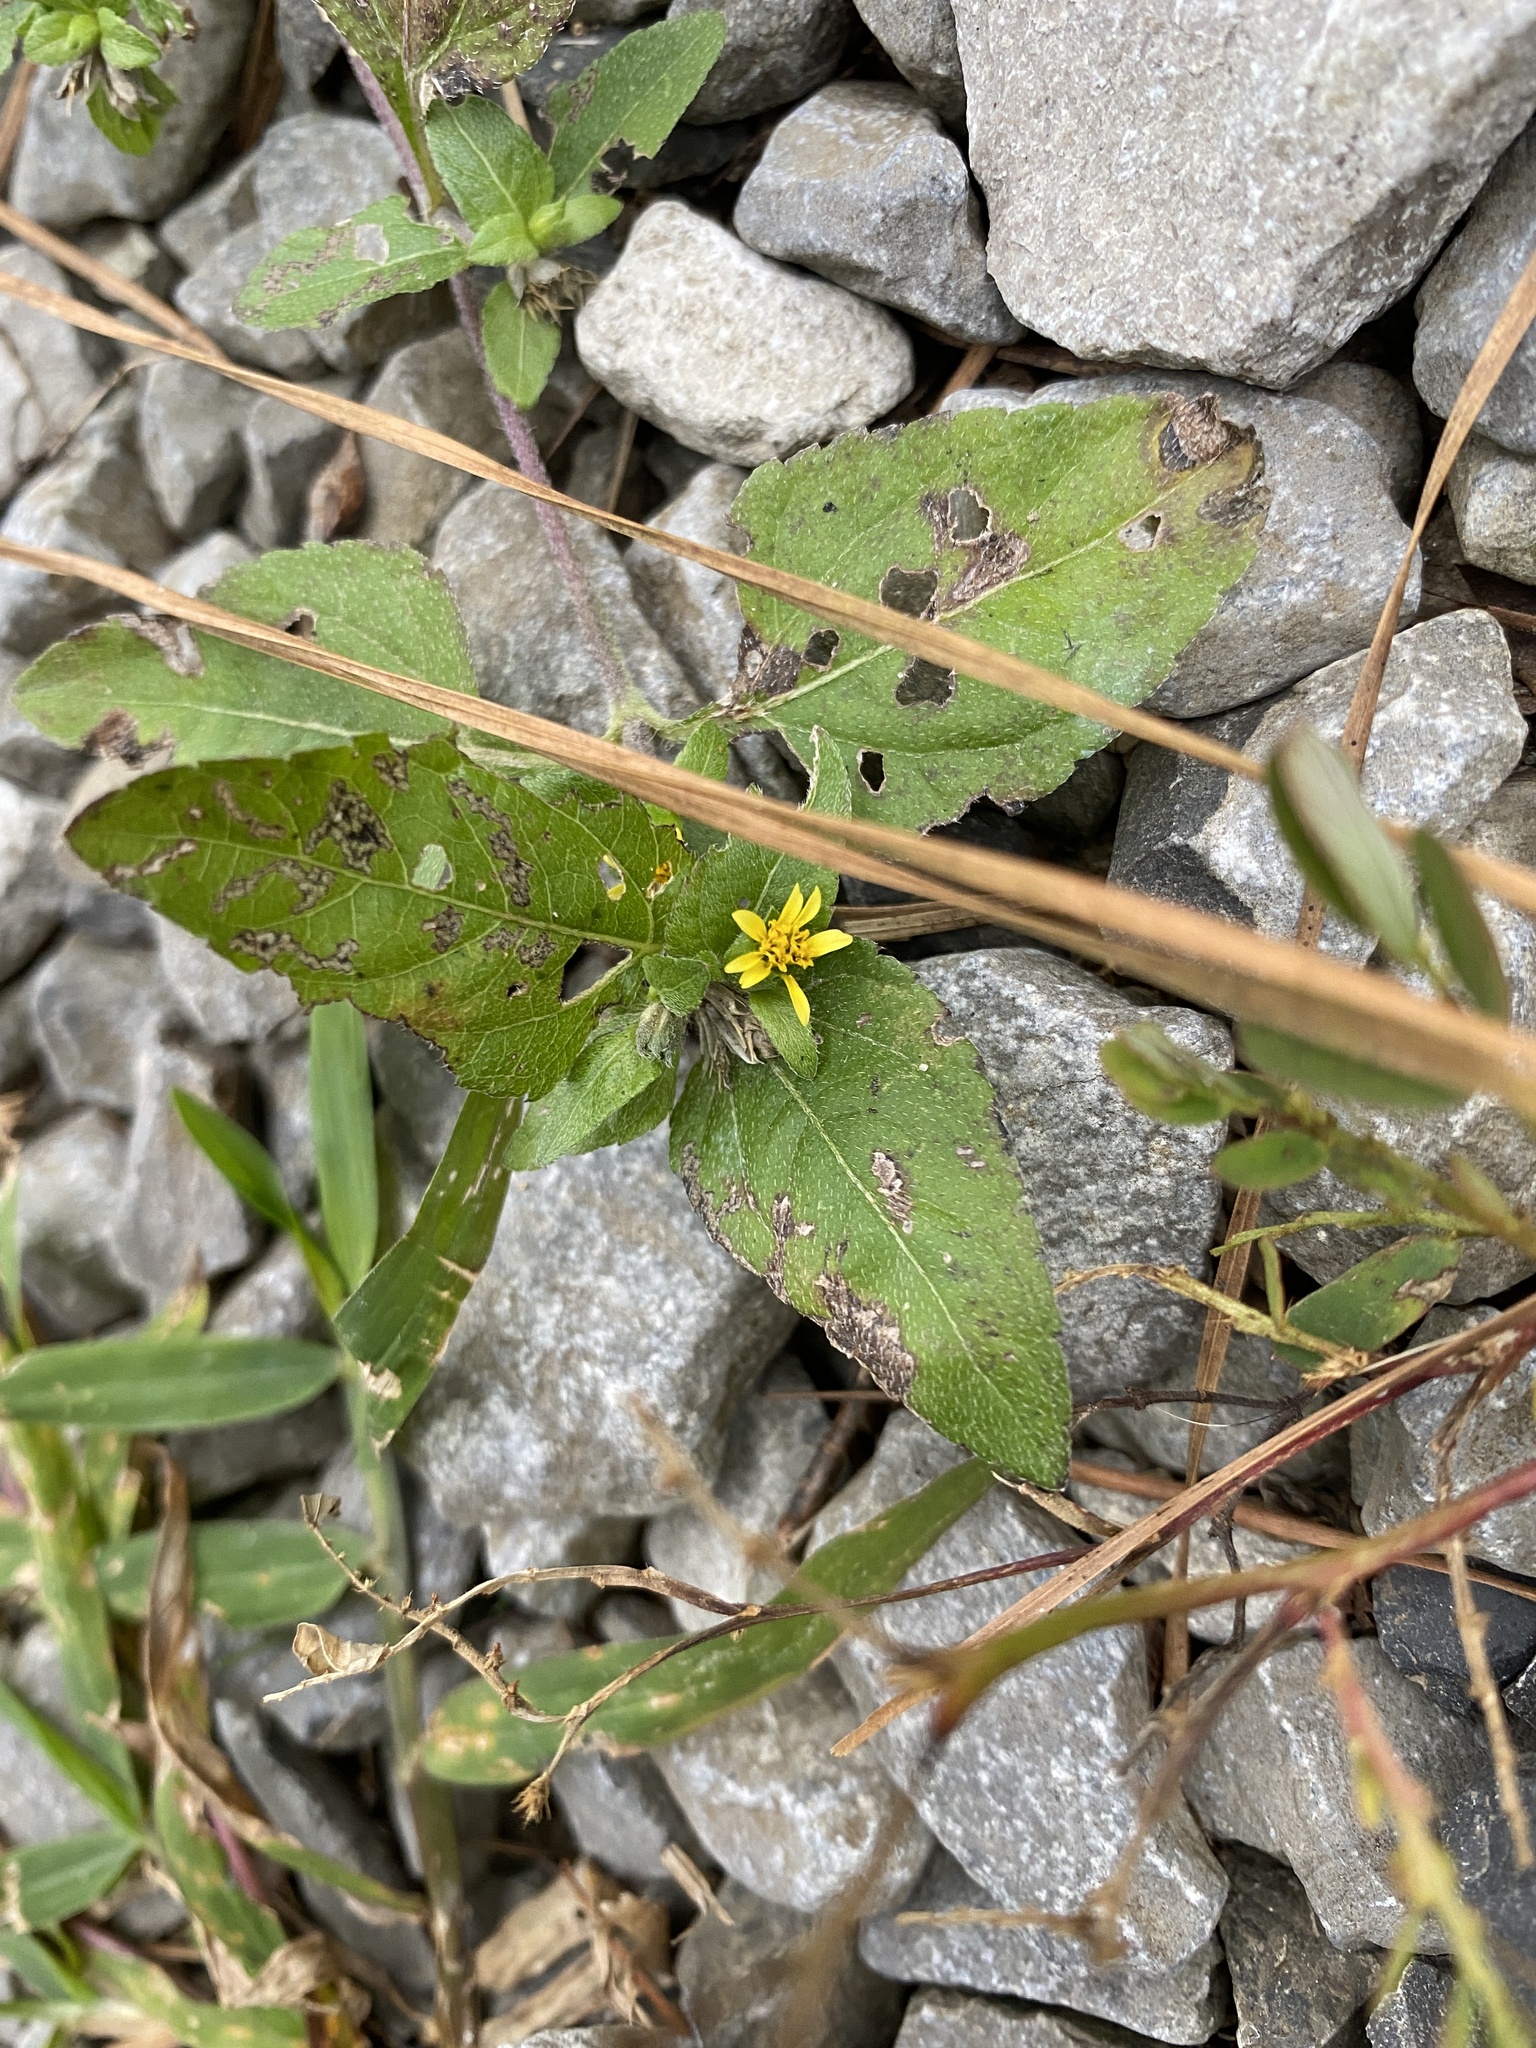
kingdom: Plantae
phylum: Tracheophyta
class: Magnoliopsida
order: Asterales
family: Asteraceae
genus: Calyptocarpus
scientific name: Calyptocarpus vialis
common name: Straggler daisy
